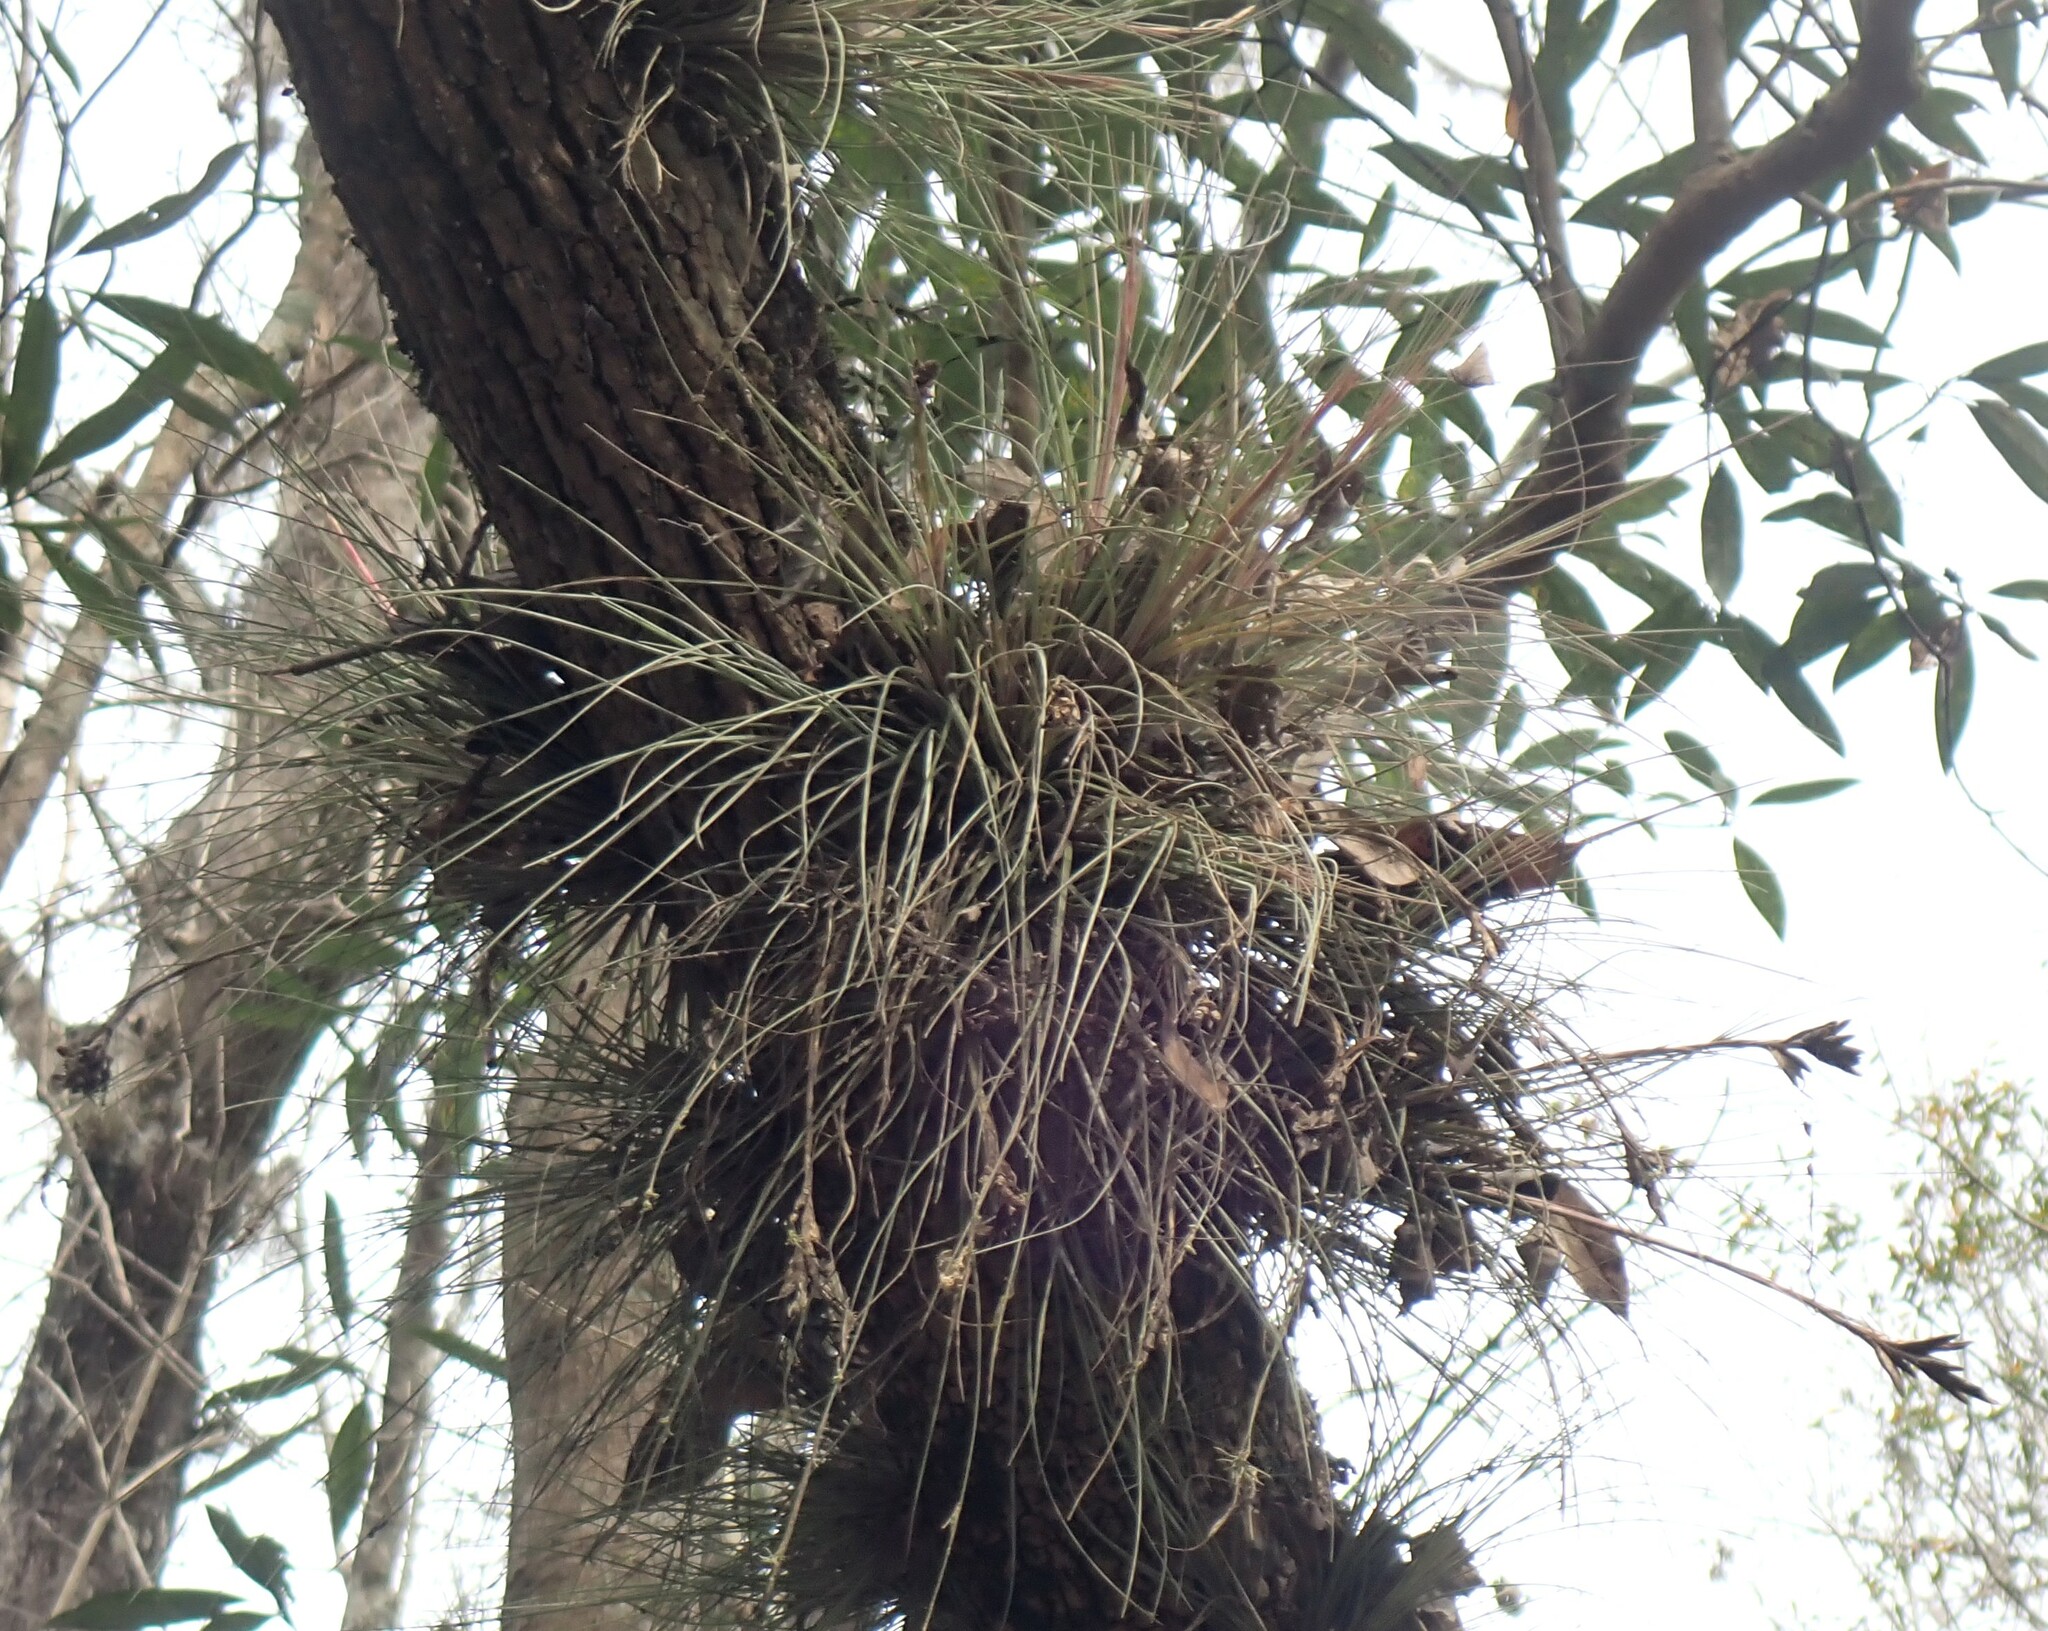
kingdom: Plantae
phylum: Tracheophyta
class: Liliopsida
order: Poales
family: Bromeliaceae
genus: Tillandsia
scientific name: Tillandsia bartramii
